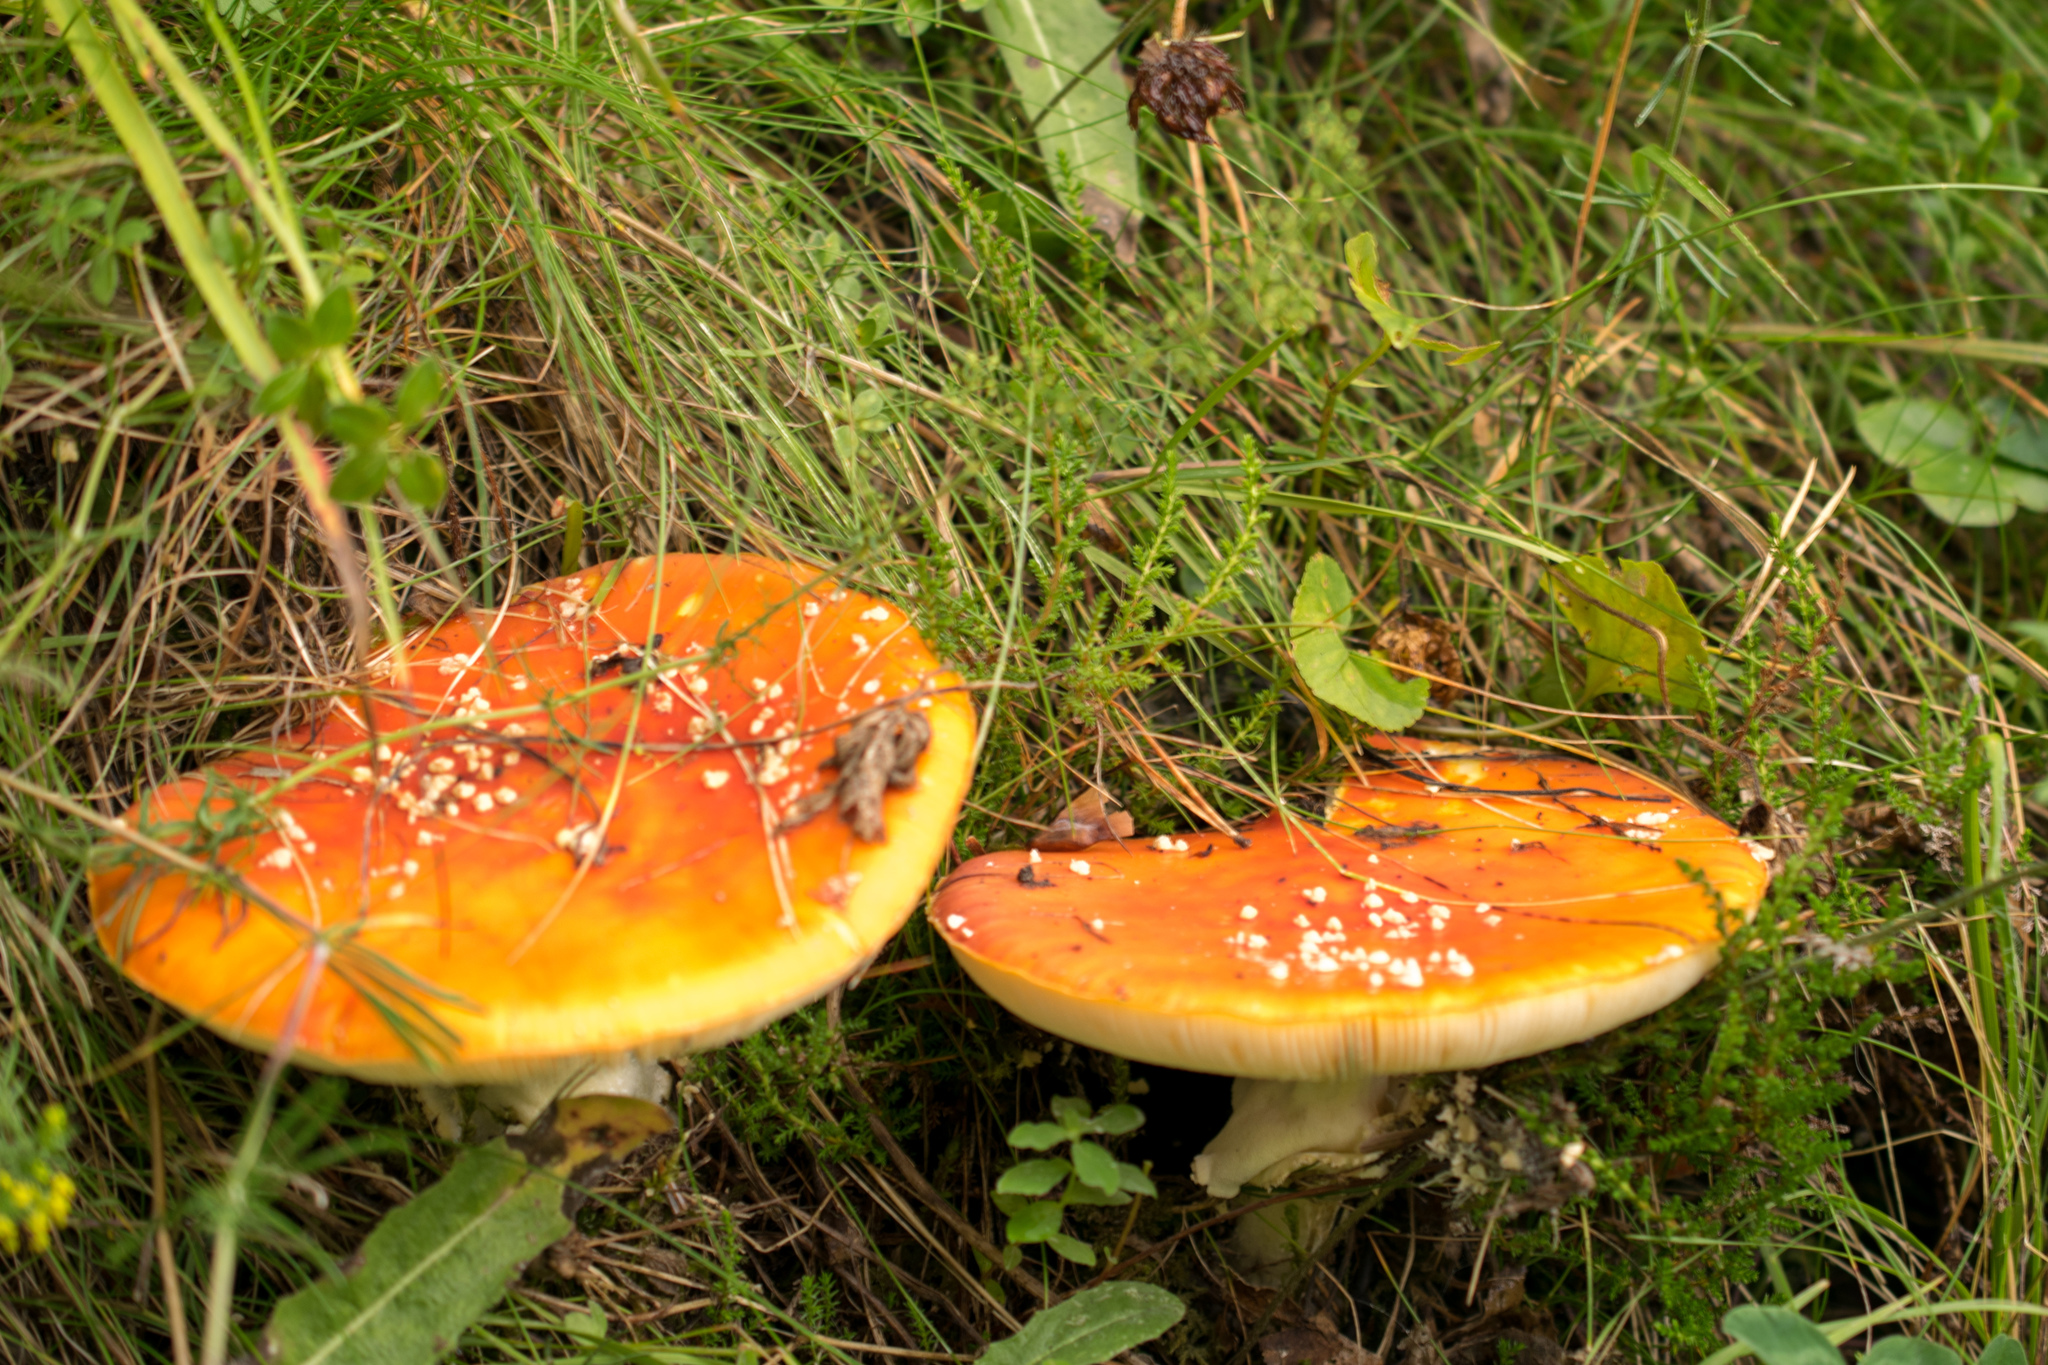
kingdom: Fungi
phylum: Basidiomycota
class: Agaricomycetes
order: Agaricales
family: Amanitaceae
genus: Amanita
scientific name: Amanita muscaria
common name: Fly agaric
